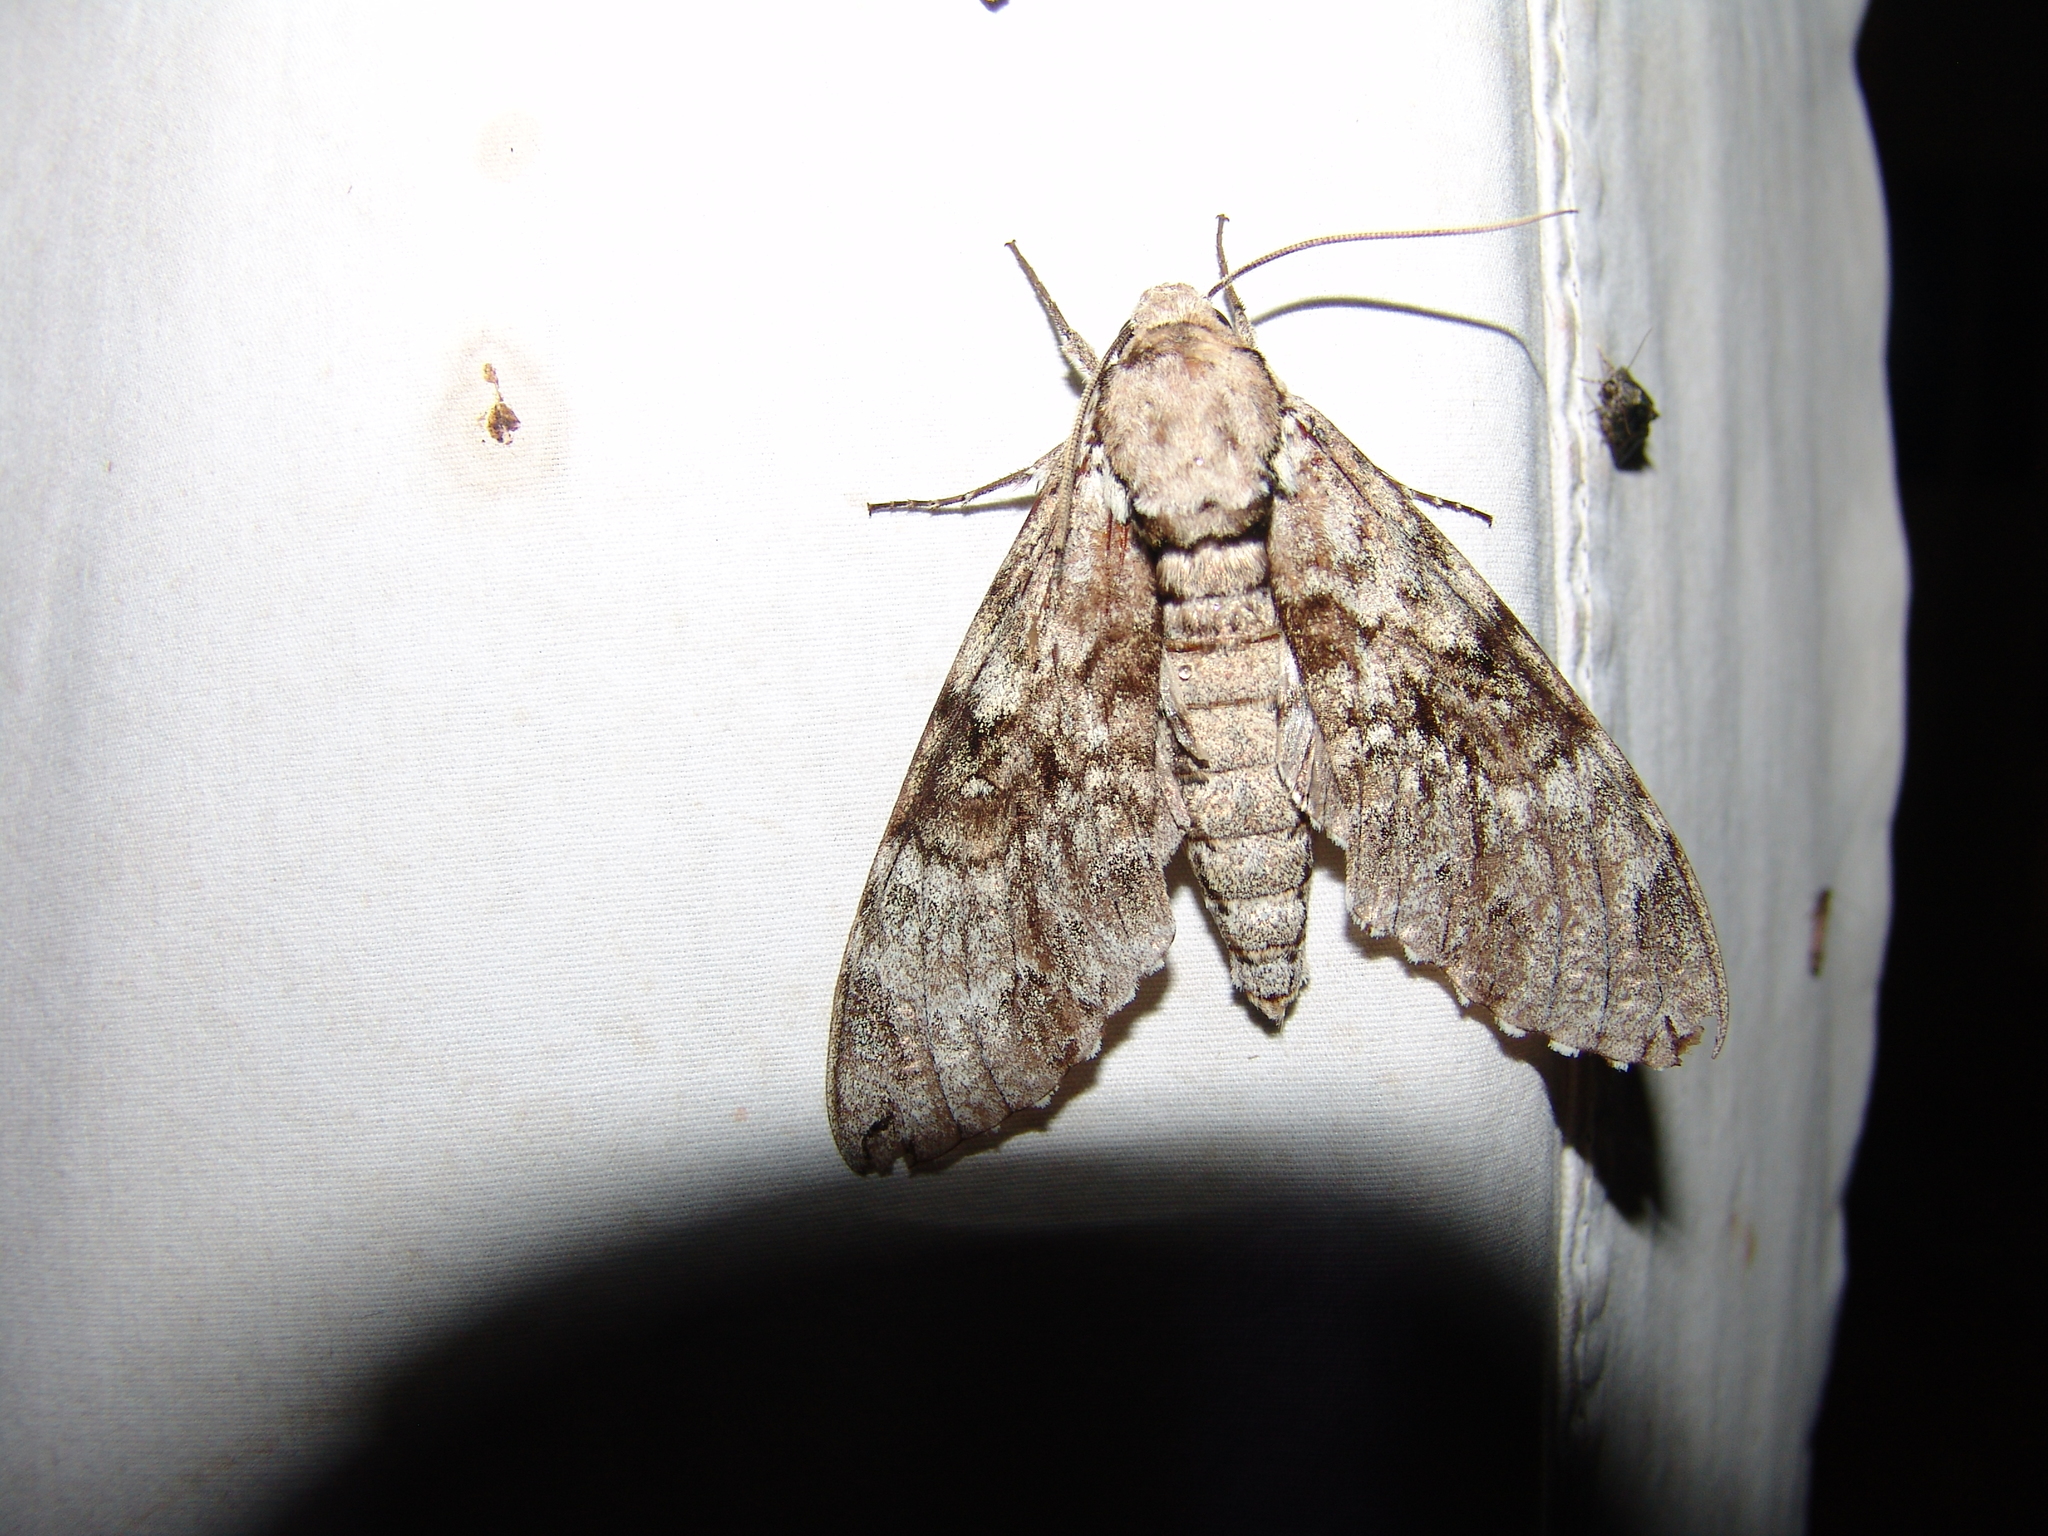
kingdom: Animalia
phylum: Arthropoda
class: Insecta
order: Lepidoptera
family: Sphingidae
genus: Manduca
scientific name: Manduca florestan
